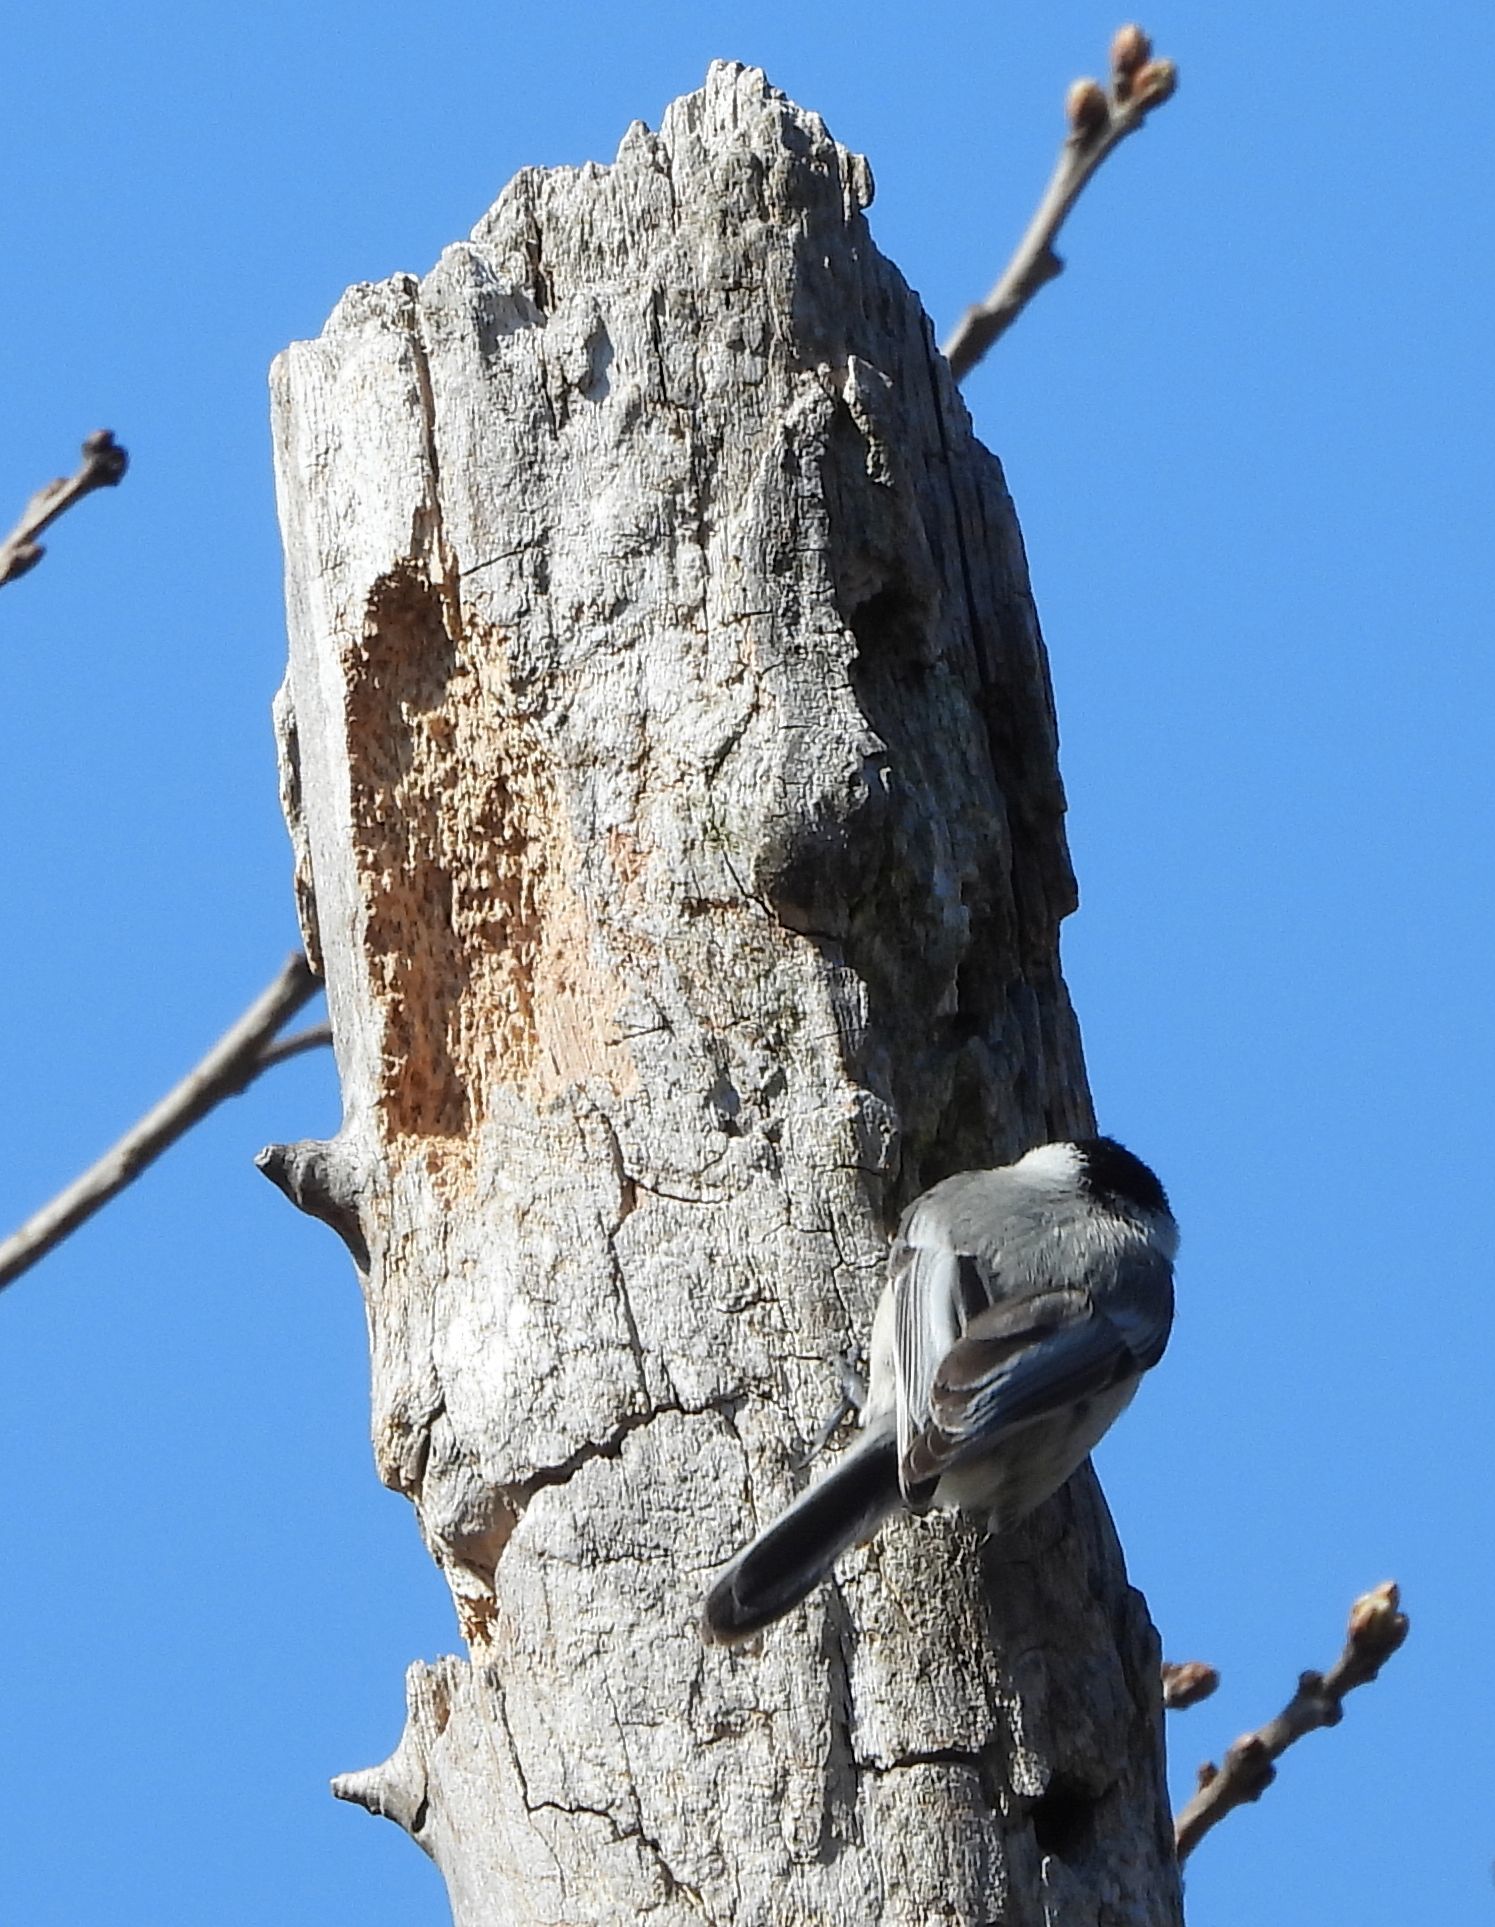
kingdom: Animalia
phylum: Chordata
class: Aves
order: Passeriformes
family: Paridae
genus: Poecile
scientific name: Poecile atricapillus
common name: Black-capped chickadee
